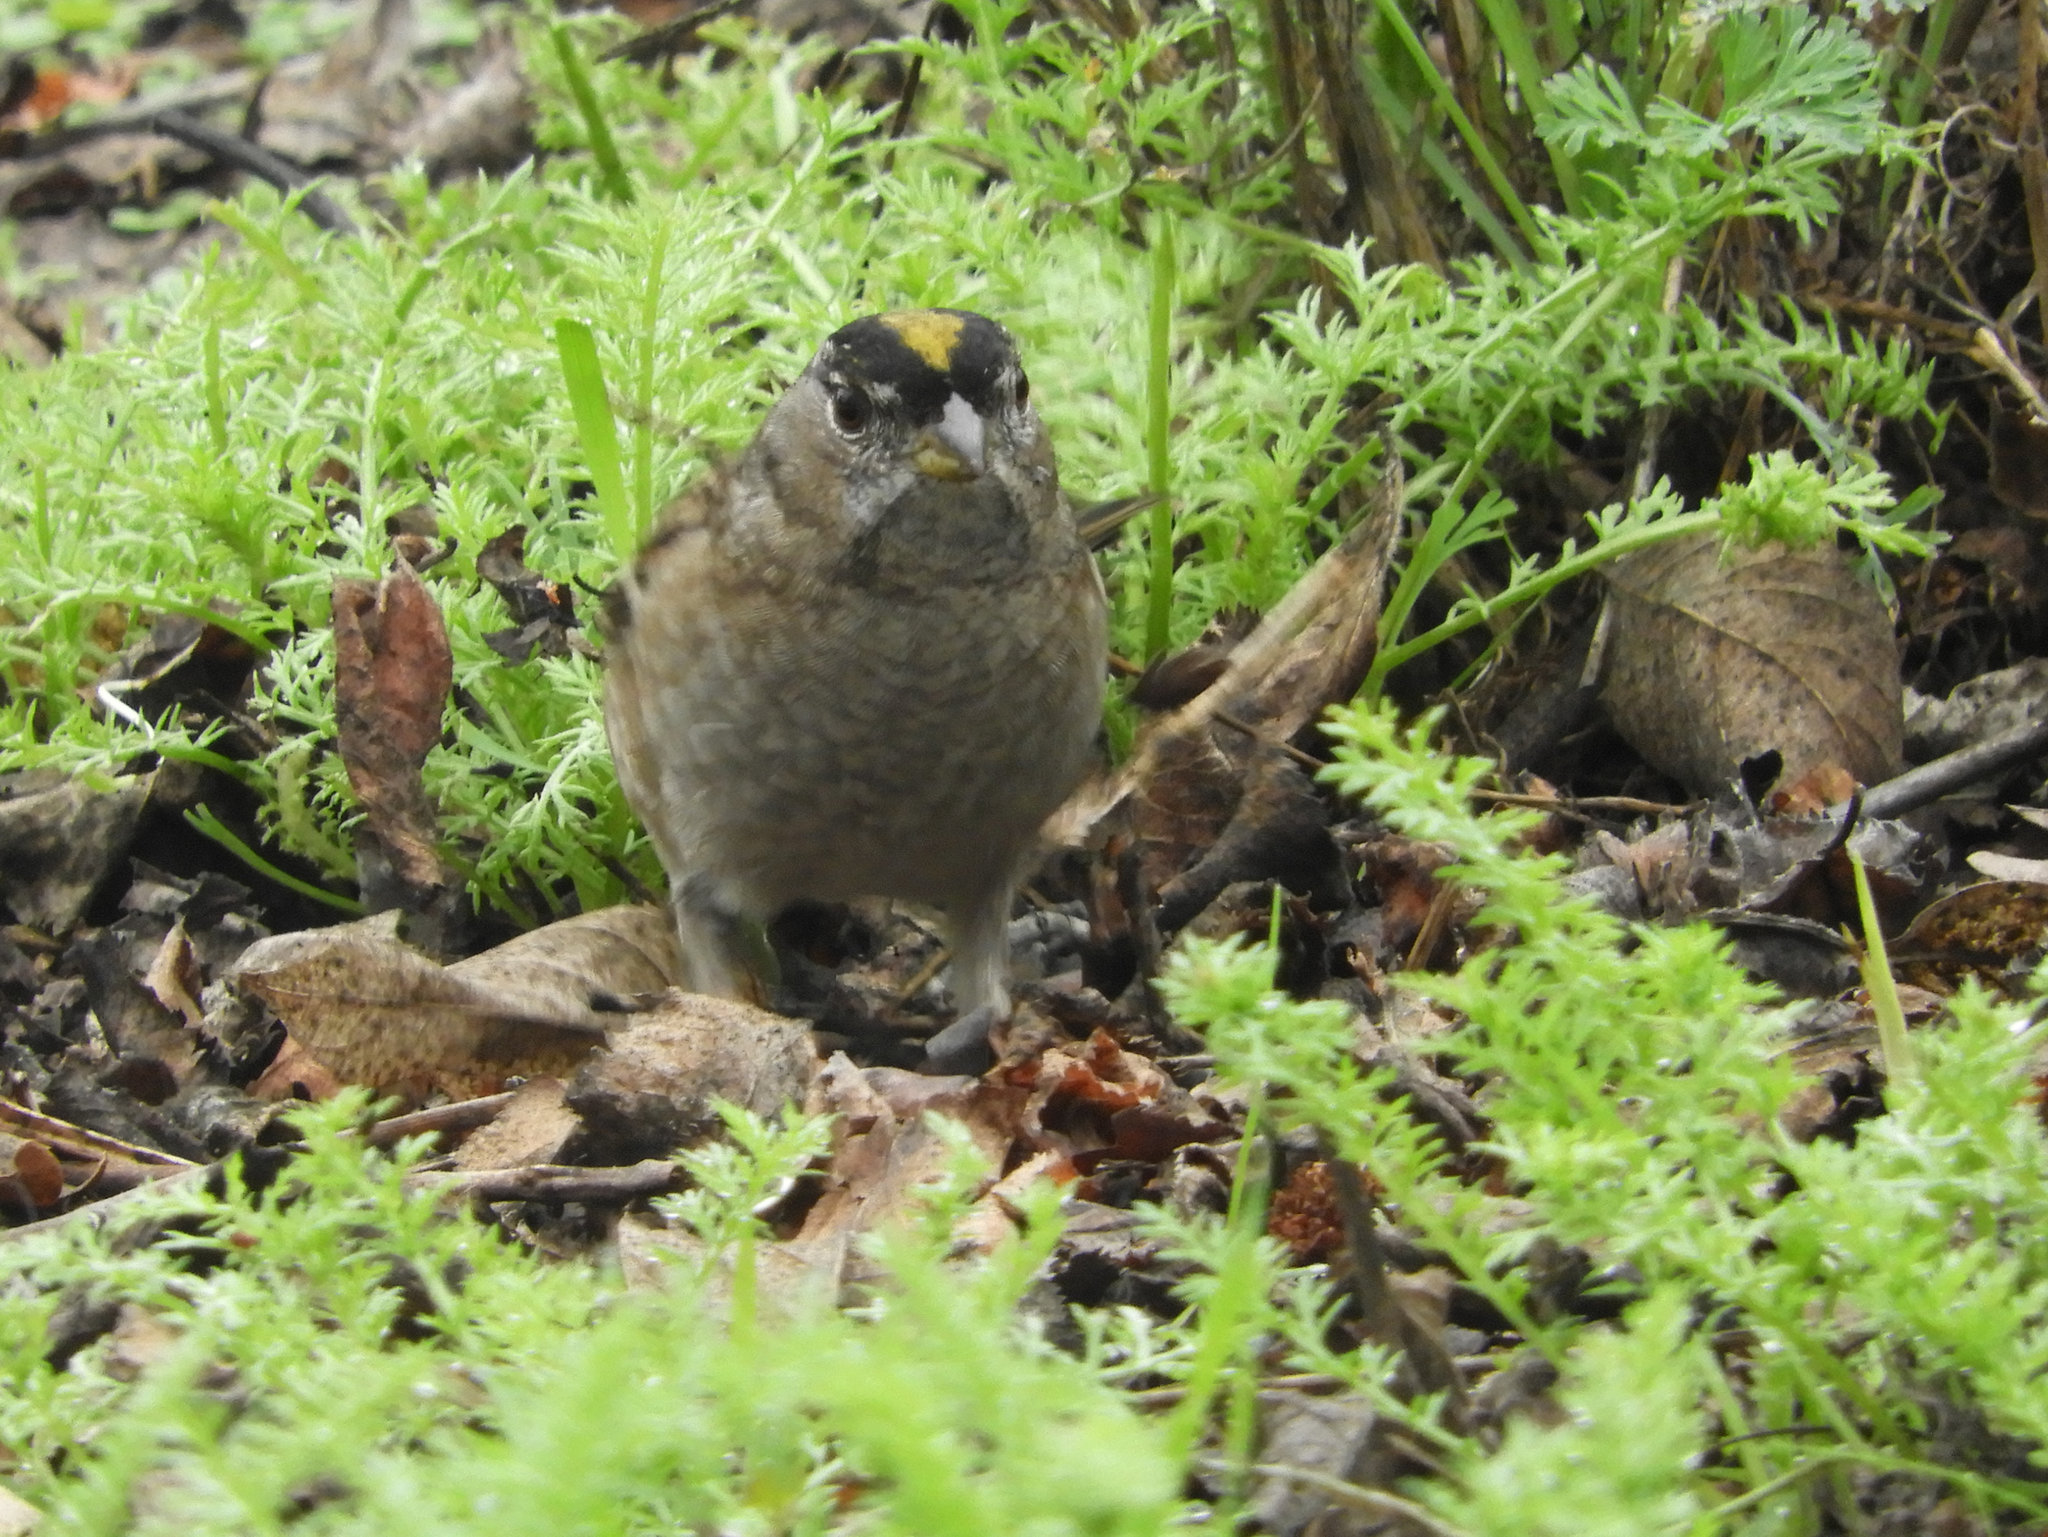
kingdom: Animalia
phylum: Chordata
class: Aves
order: Passeriformes
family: Passerellidae
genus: Zonotrichia
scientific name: Zonotrichia atricapilla
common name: Golden-crowned sparrow
